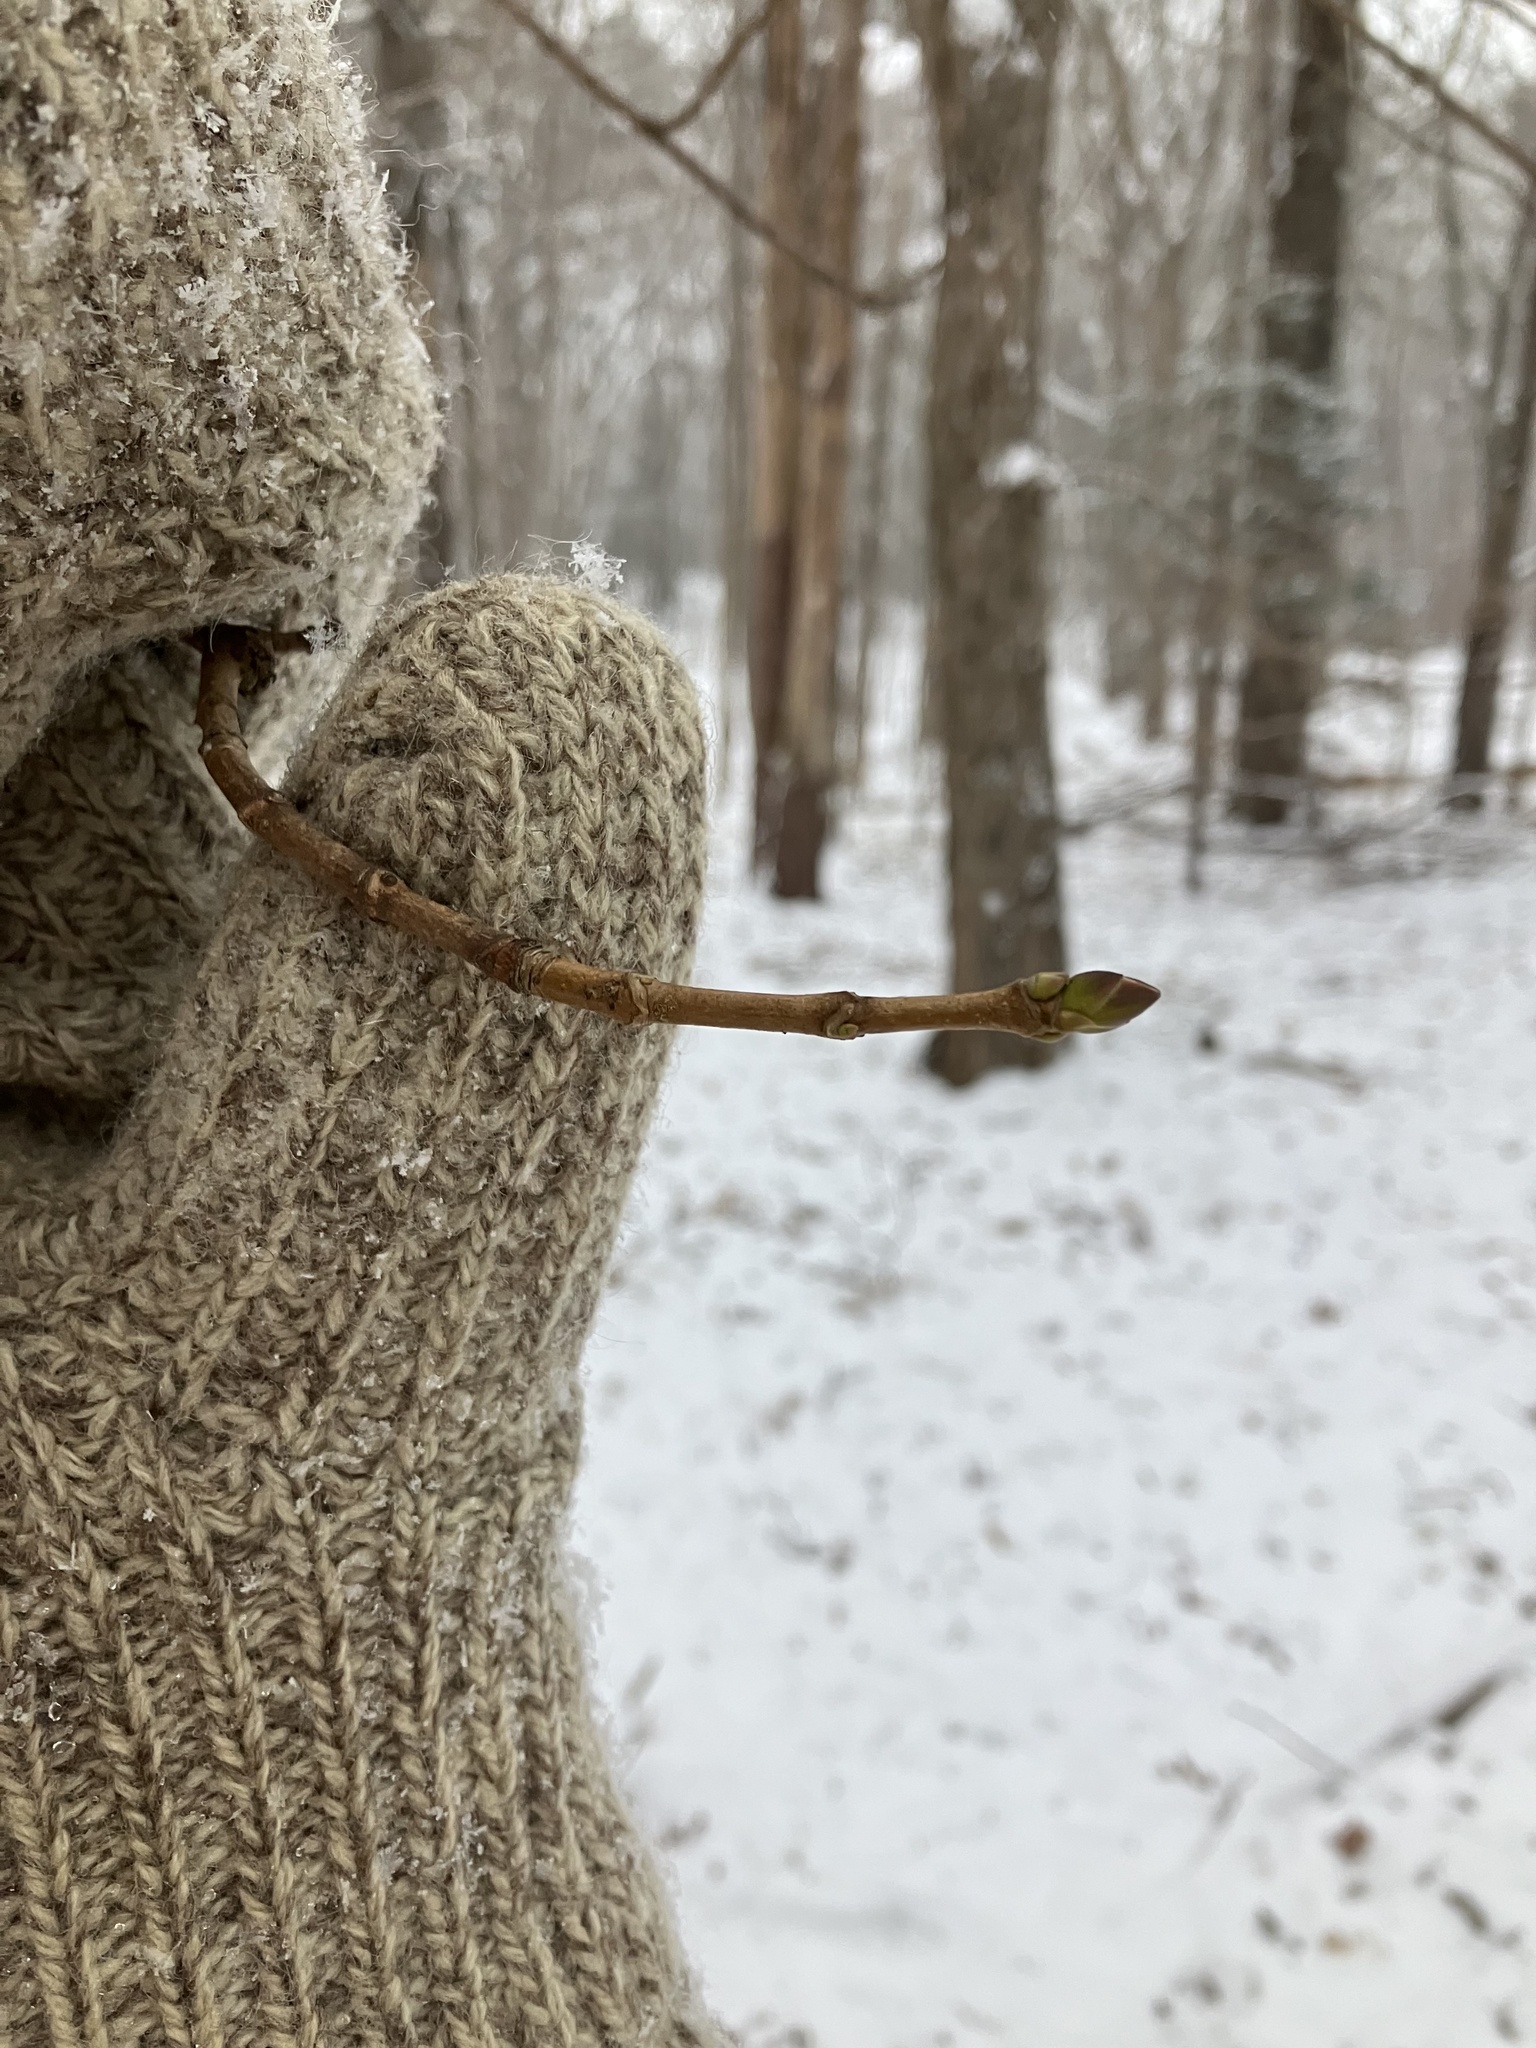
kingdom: Plantae
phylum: Tracheophyta
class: Magnoliopsida
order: Sapindales
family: Sapindaceae
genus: Acer
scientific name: Acer platanoides
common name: Norway maple
